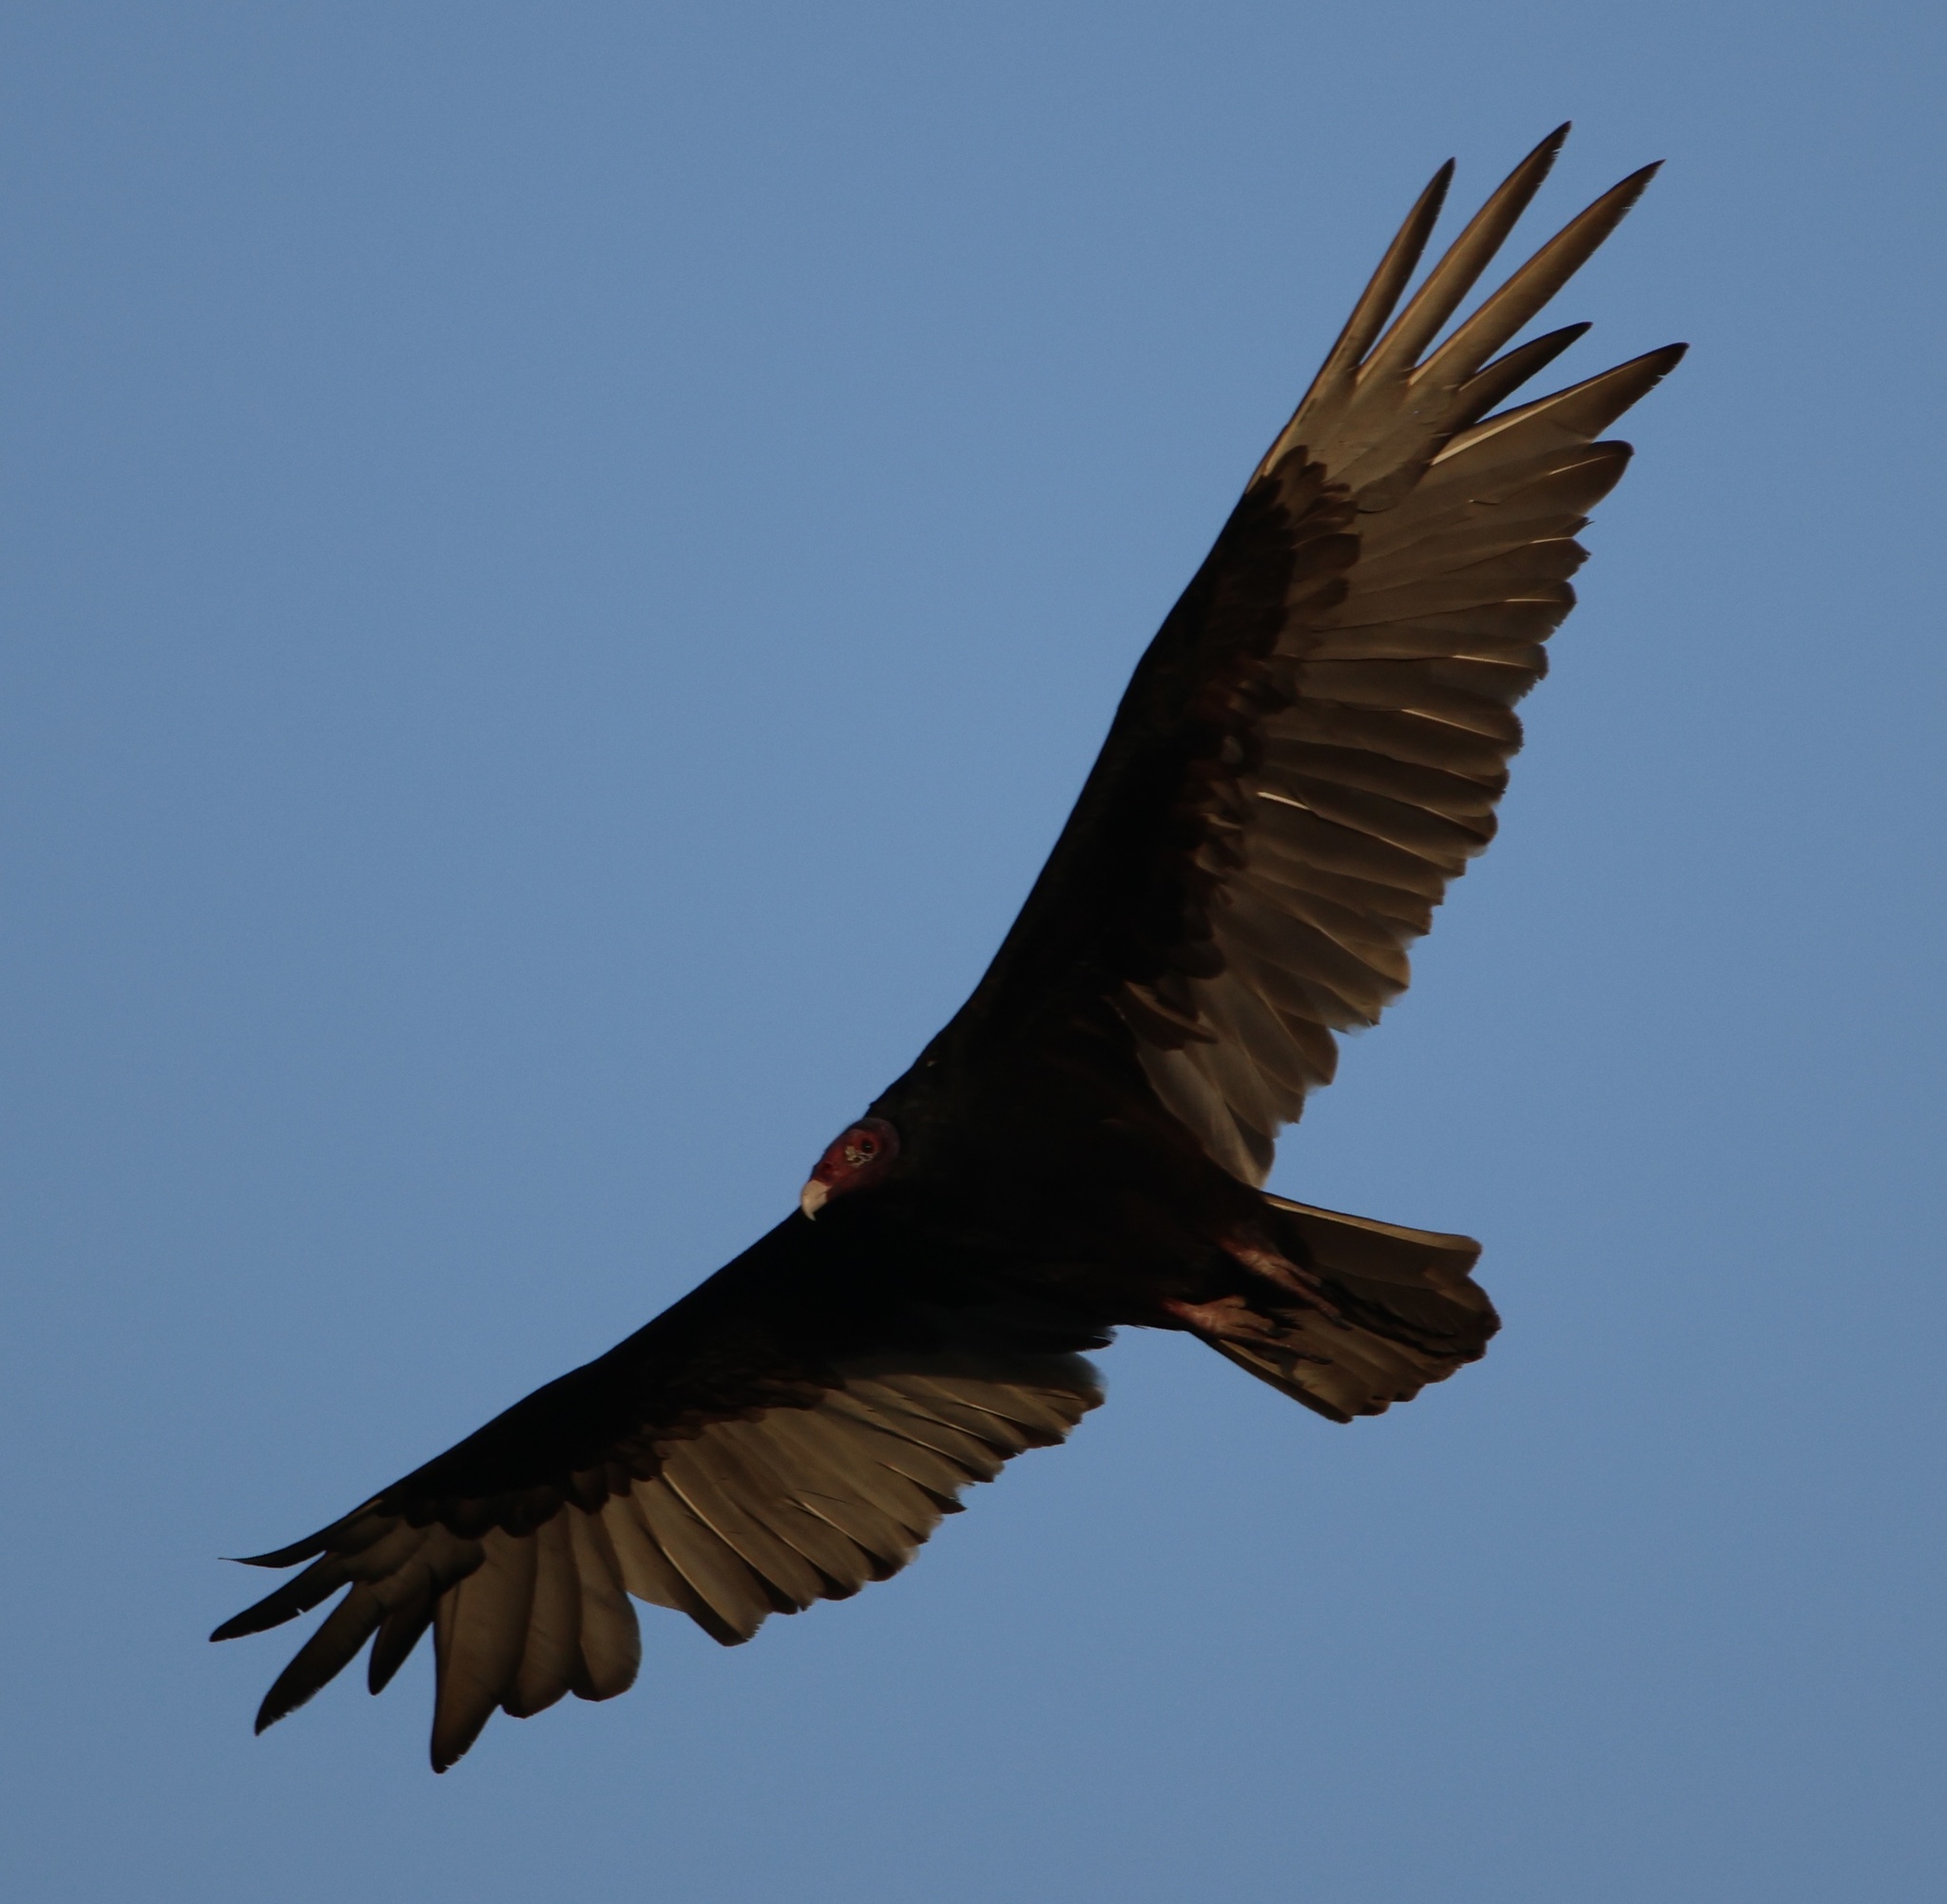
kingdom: Animalia
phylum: Chordata
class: Aves
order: Accipitriformes
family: Cathartidae
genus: Cathartes
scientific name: Cathartes aura
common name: Turkey vulture
